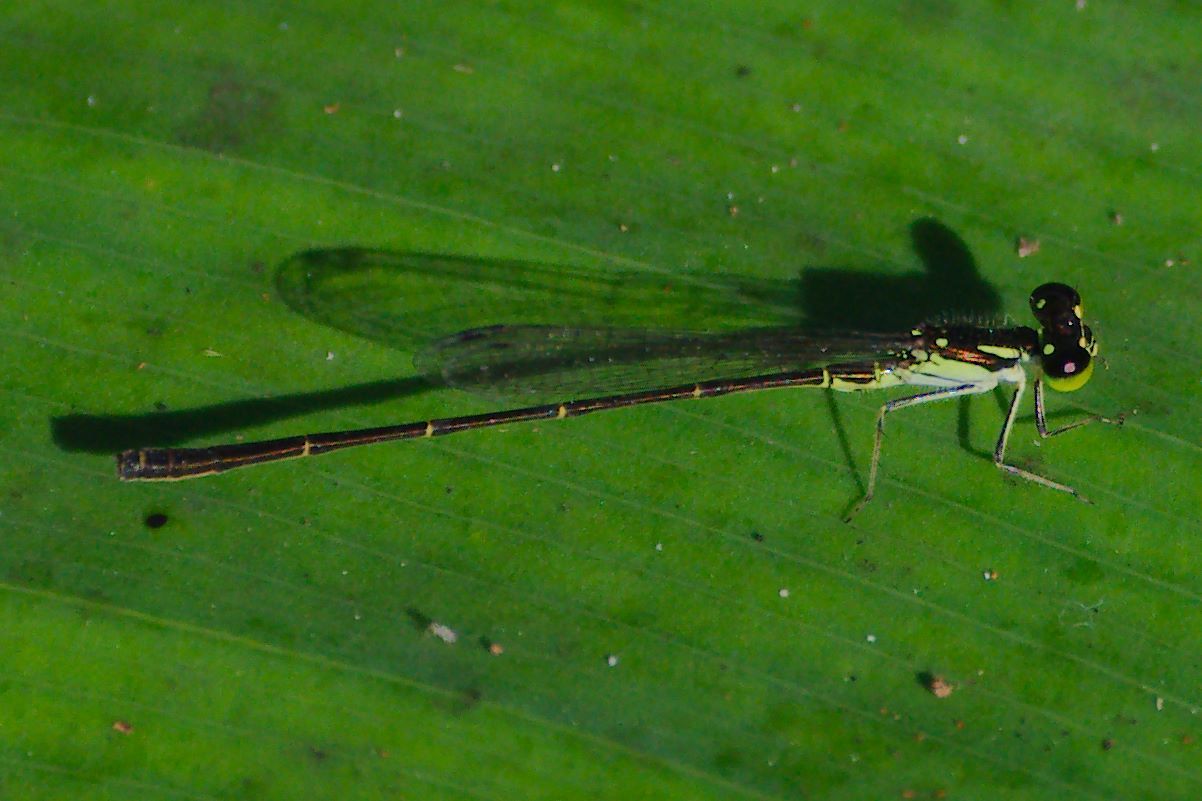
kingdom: Animalia
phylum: Arthropoda
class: Insecta
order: Odonata
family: Coenagrionidae
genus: Ischnura
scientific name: Ischnura posita
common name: Fragile forktail
